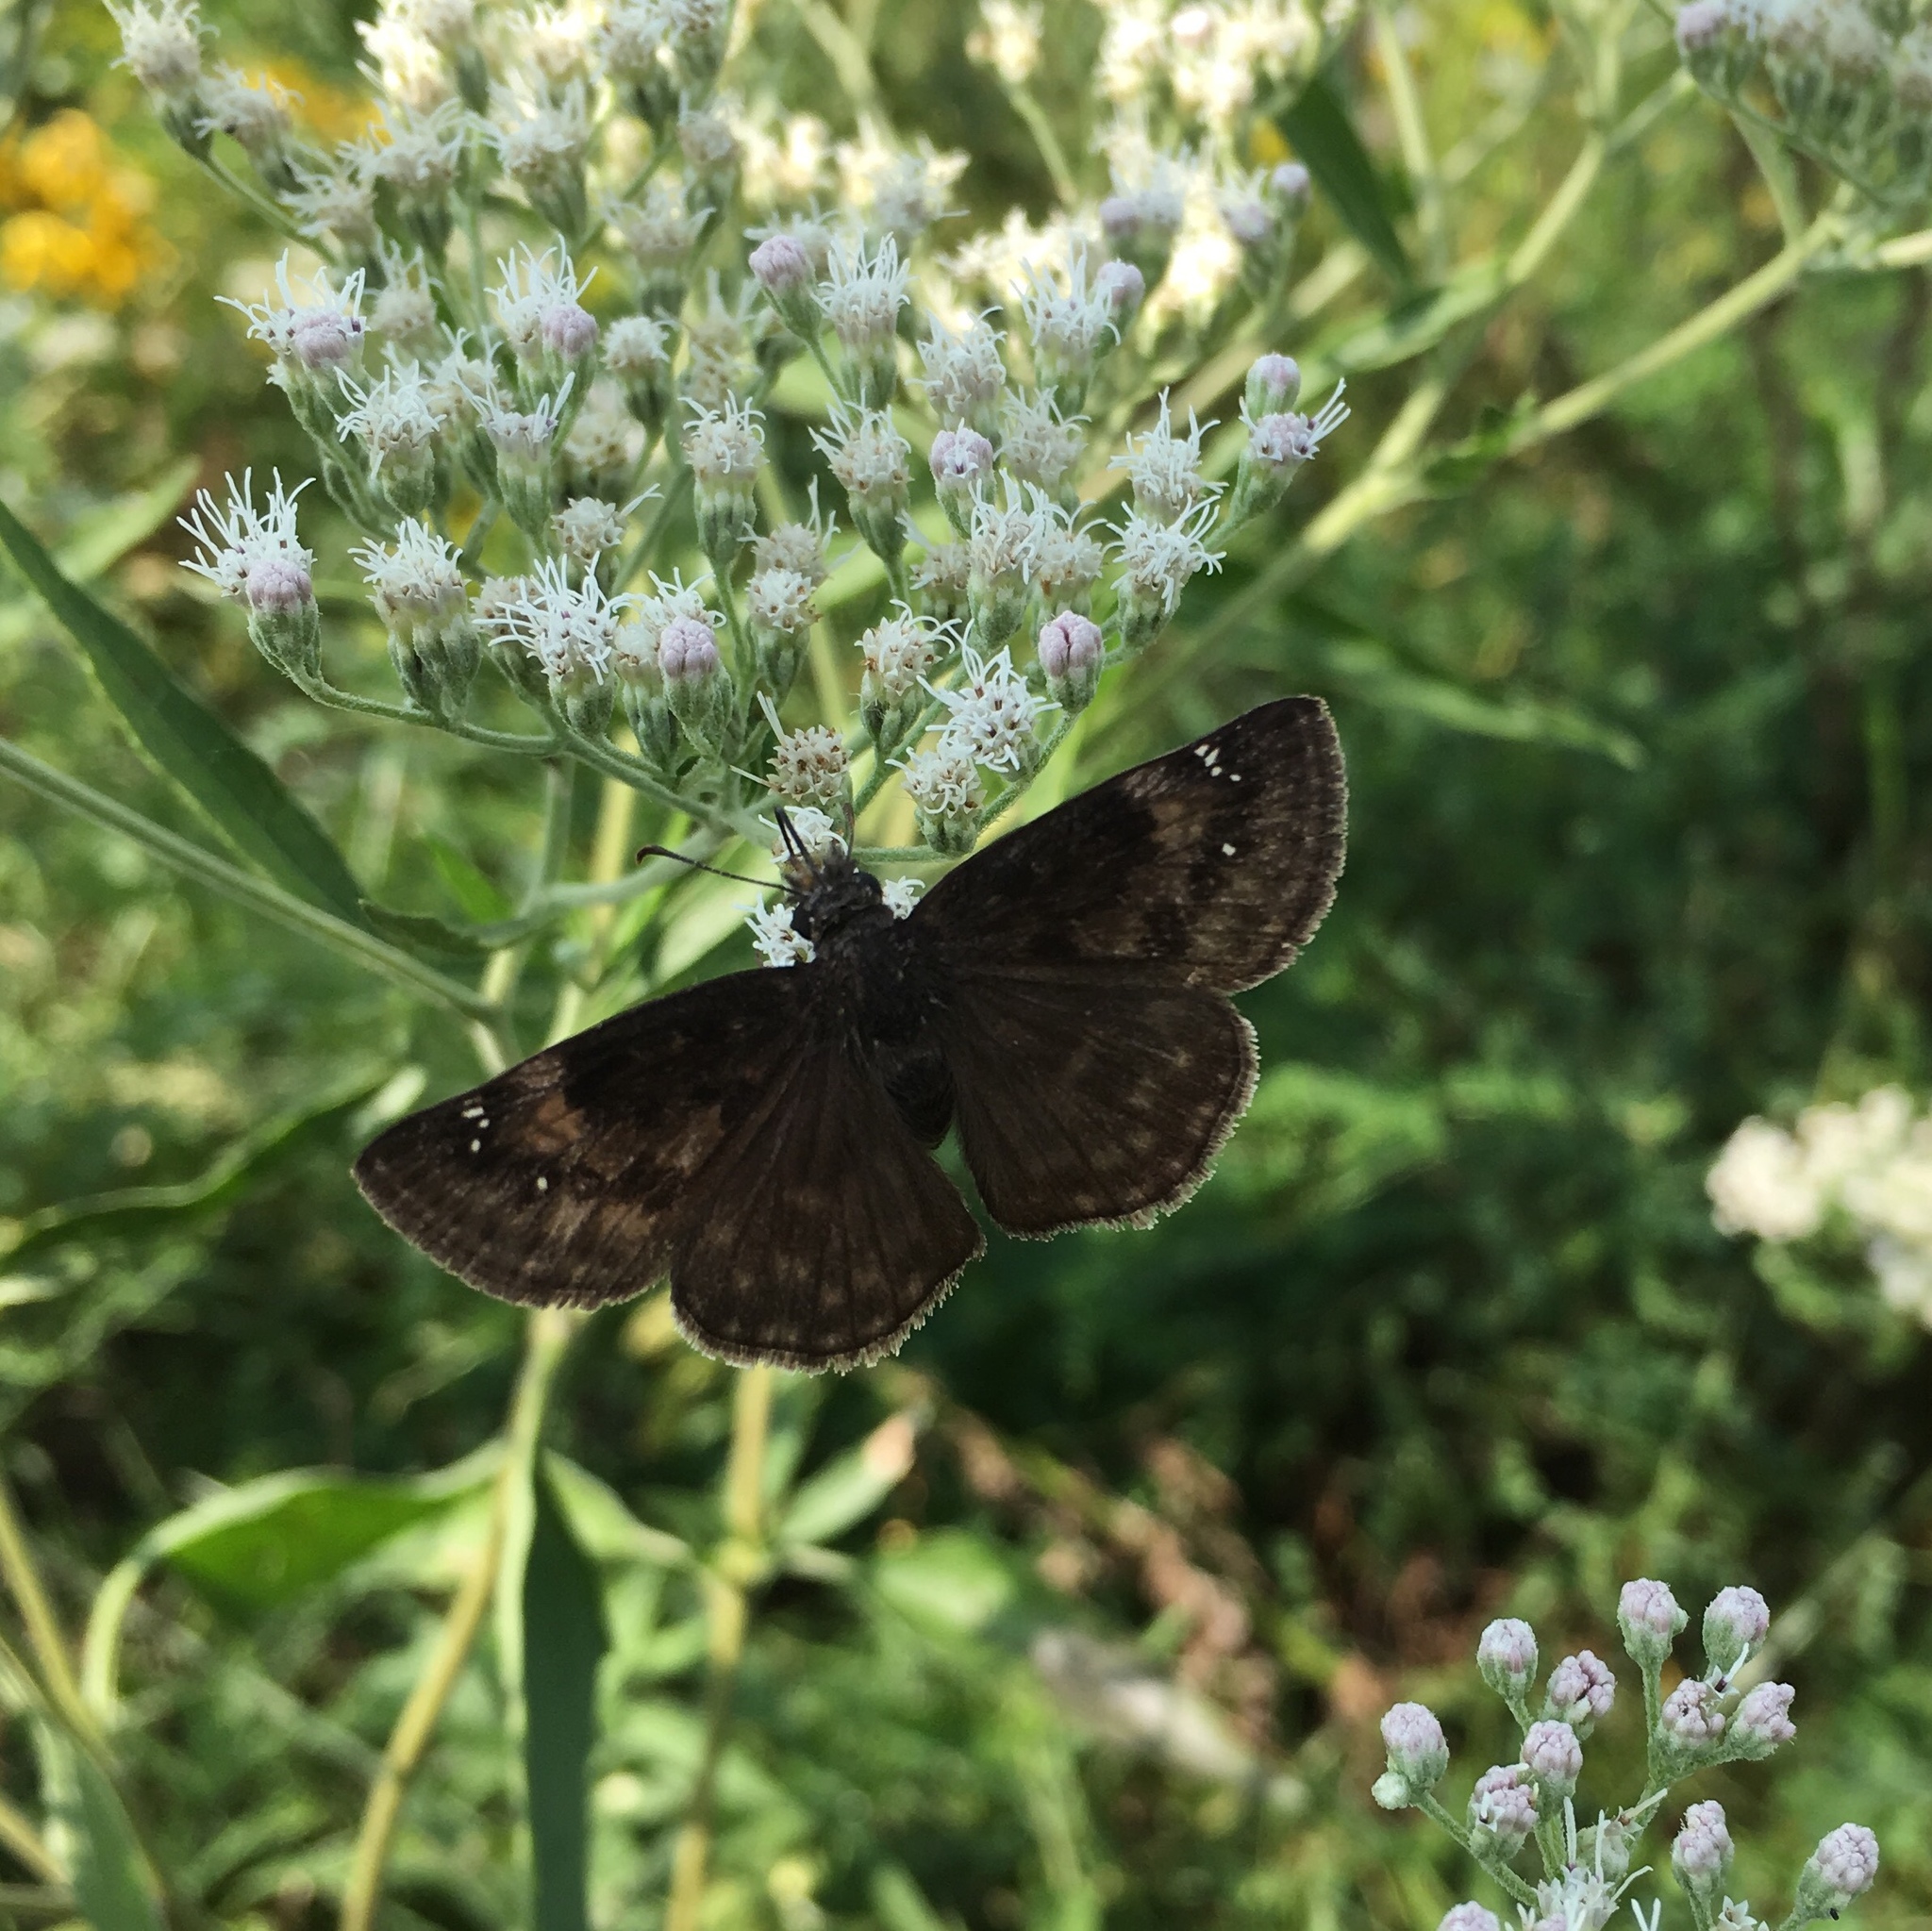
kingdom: Animalia
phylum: Arthropoda
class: Insecta
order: Lepidoptera
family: Hesperiidae
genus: Erynnis
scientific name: Erynnis baptisiae
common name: Wild indigo duskywing
